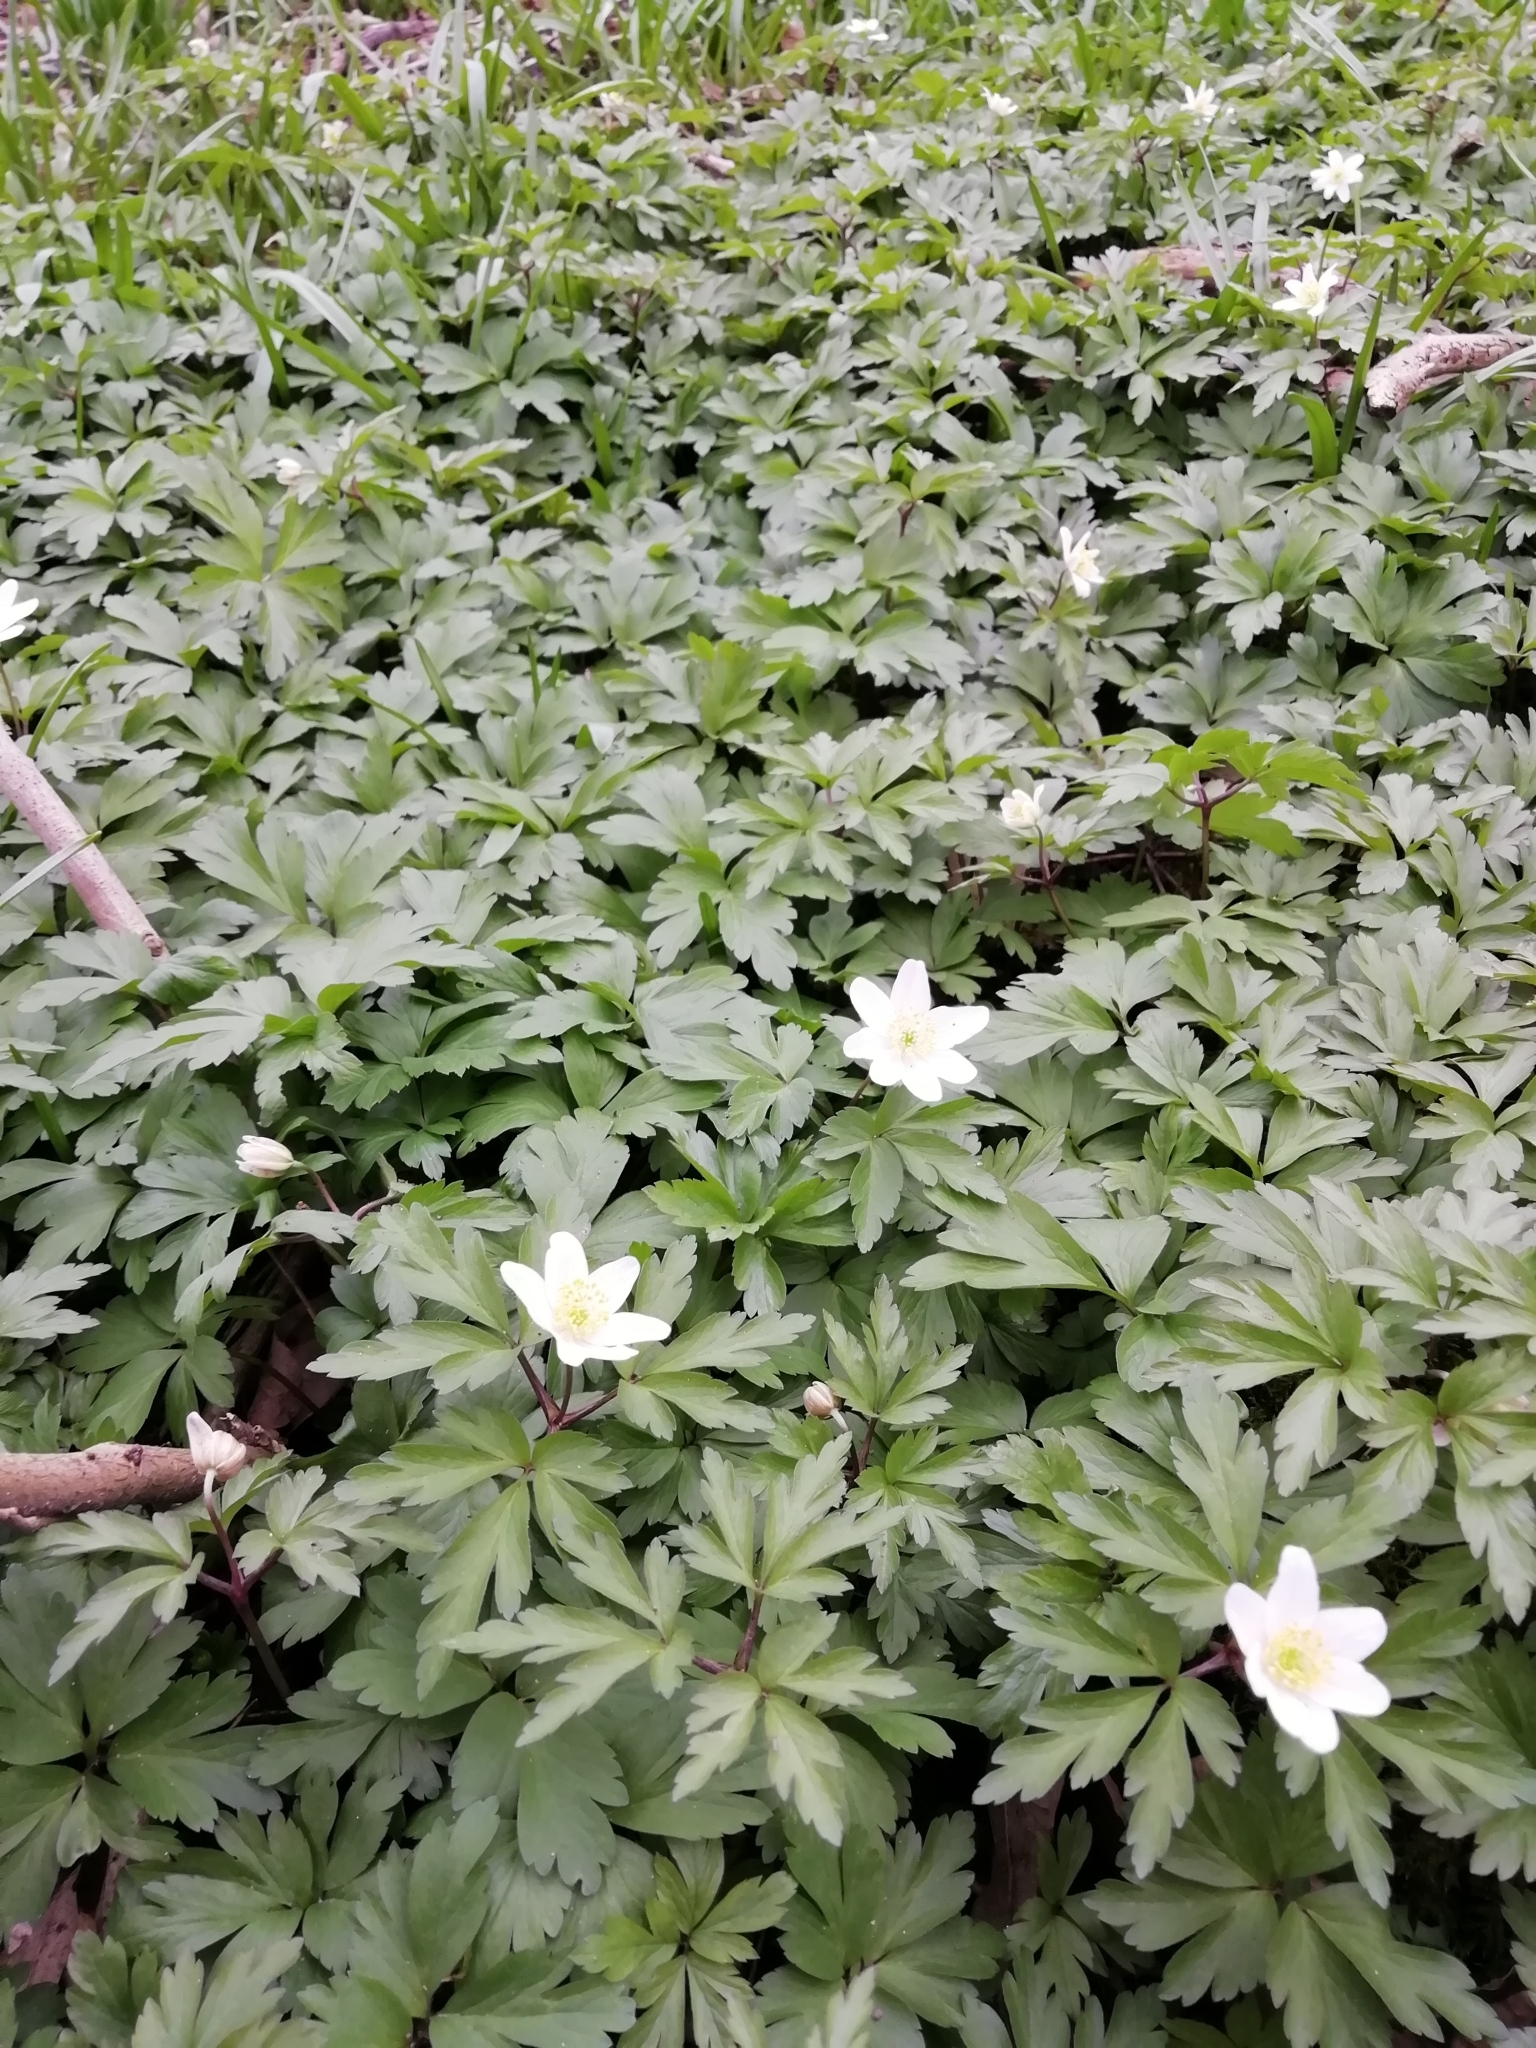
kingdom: Plantae
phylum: Tracheophyta
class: Magnoliopsida
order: Ranunculales
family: Ranunculaceae
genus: Anemone
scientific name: Anemone nemorosa
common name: Wood anemone
